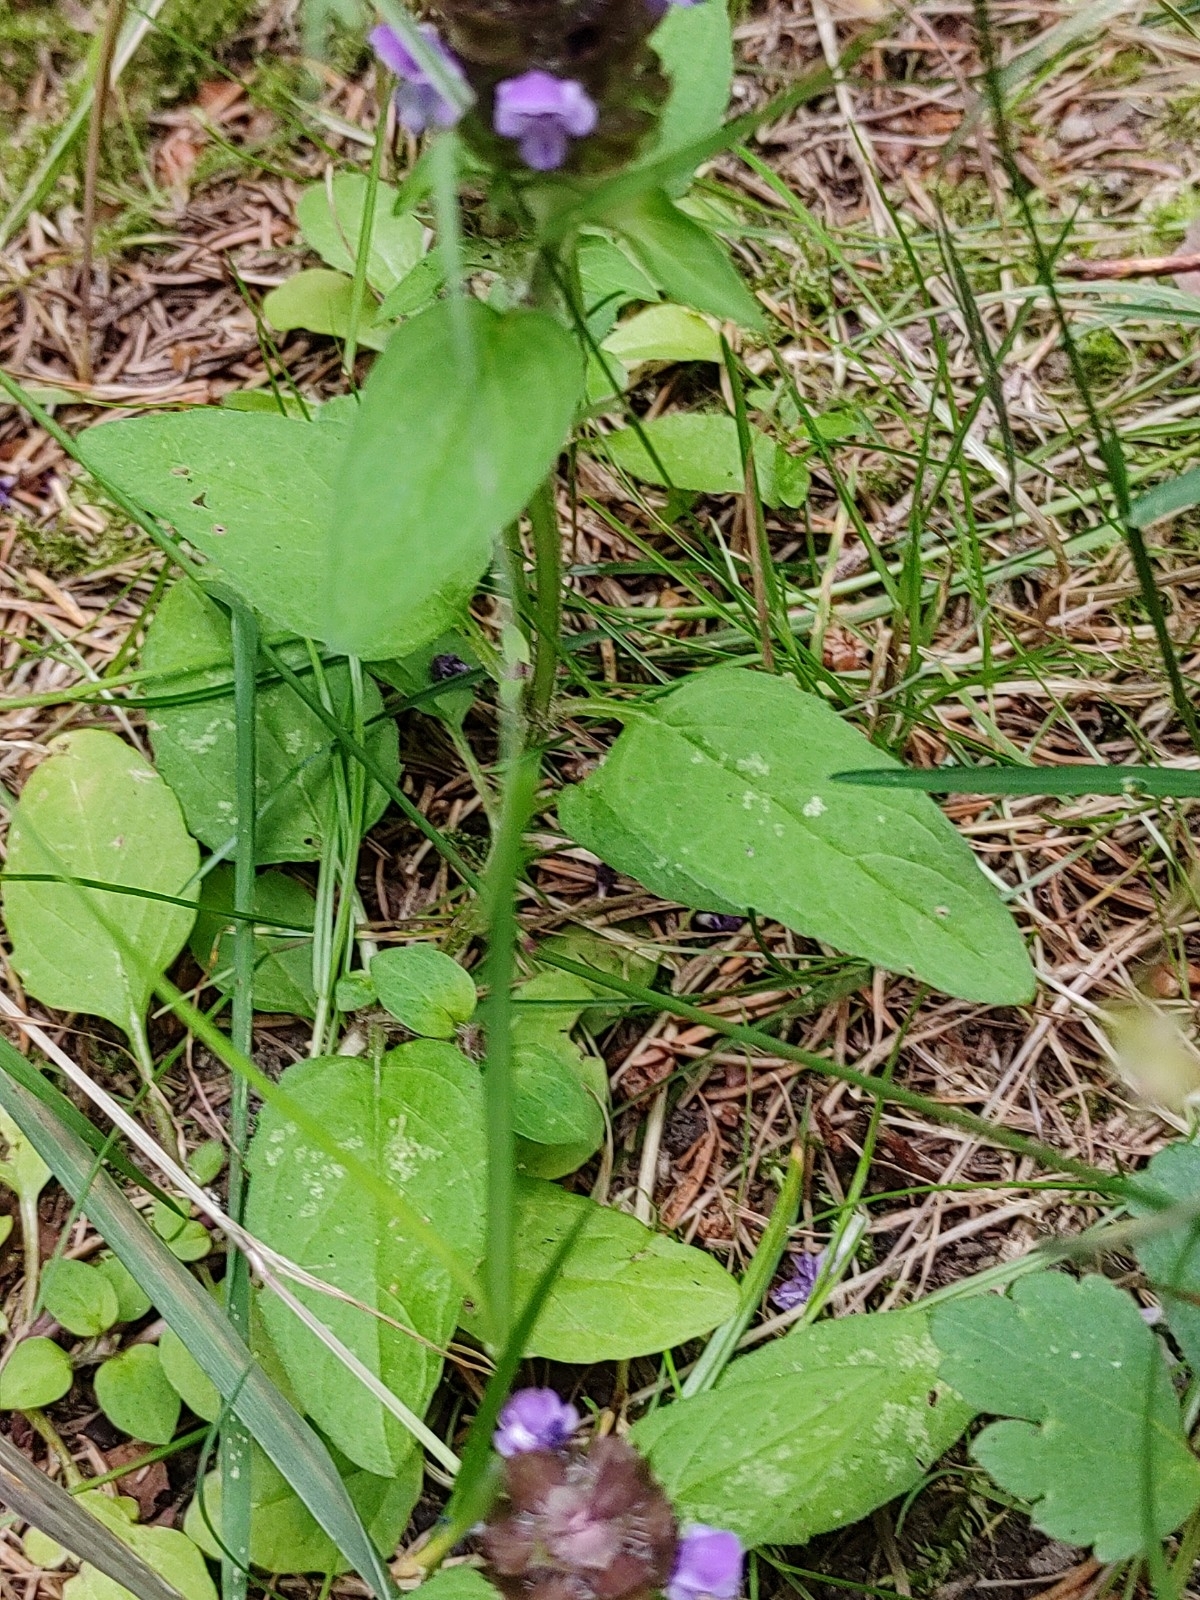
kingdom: Plantae
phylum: Tracheophyta
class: Magnoliopsida
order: Lamiales
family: Lamiaceae
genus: Prunella
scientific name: Prunella vulgaris
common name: Heal-all
